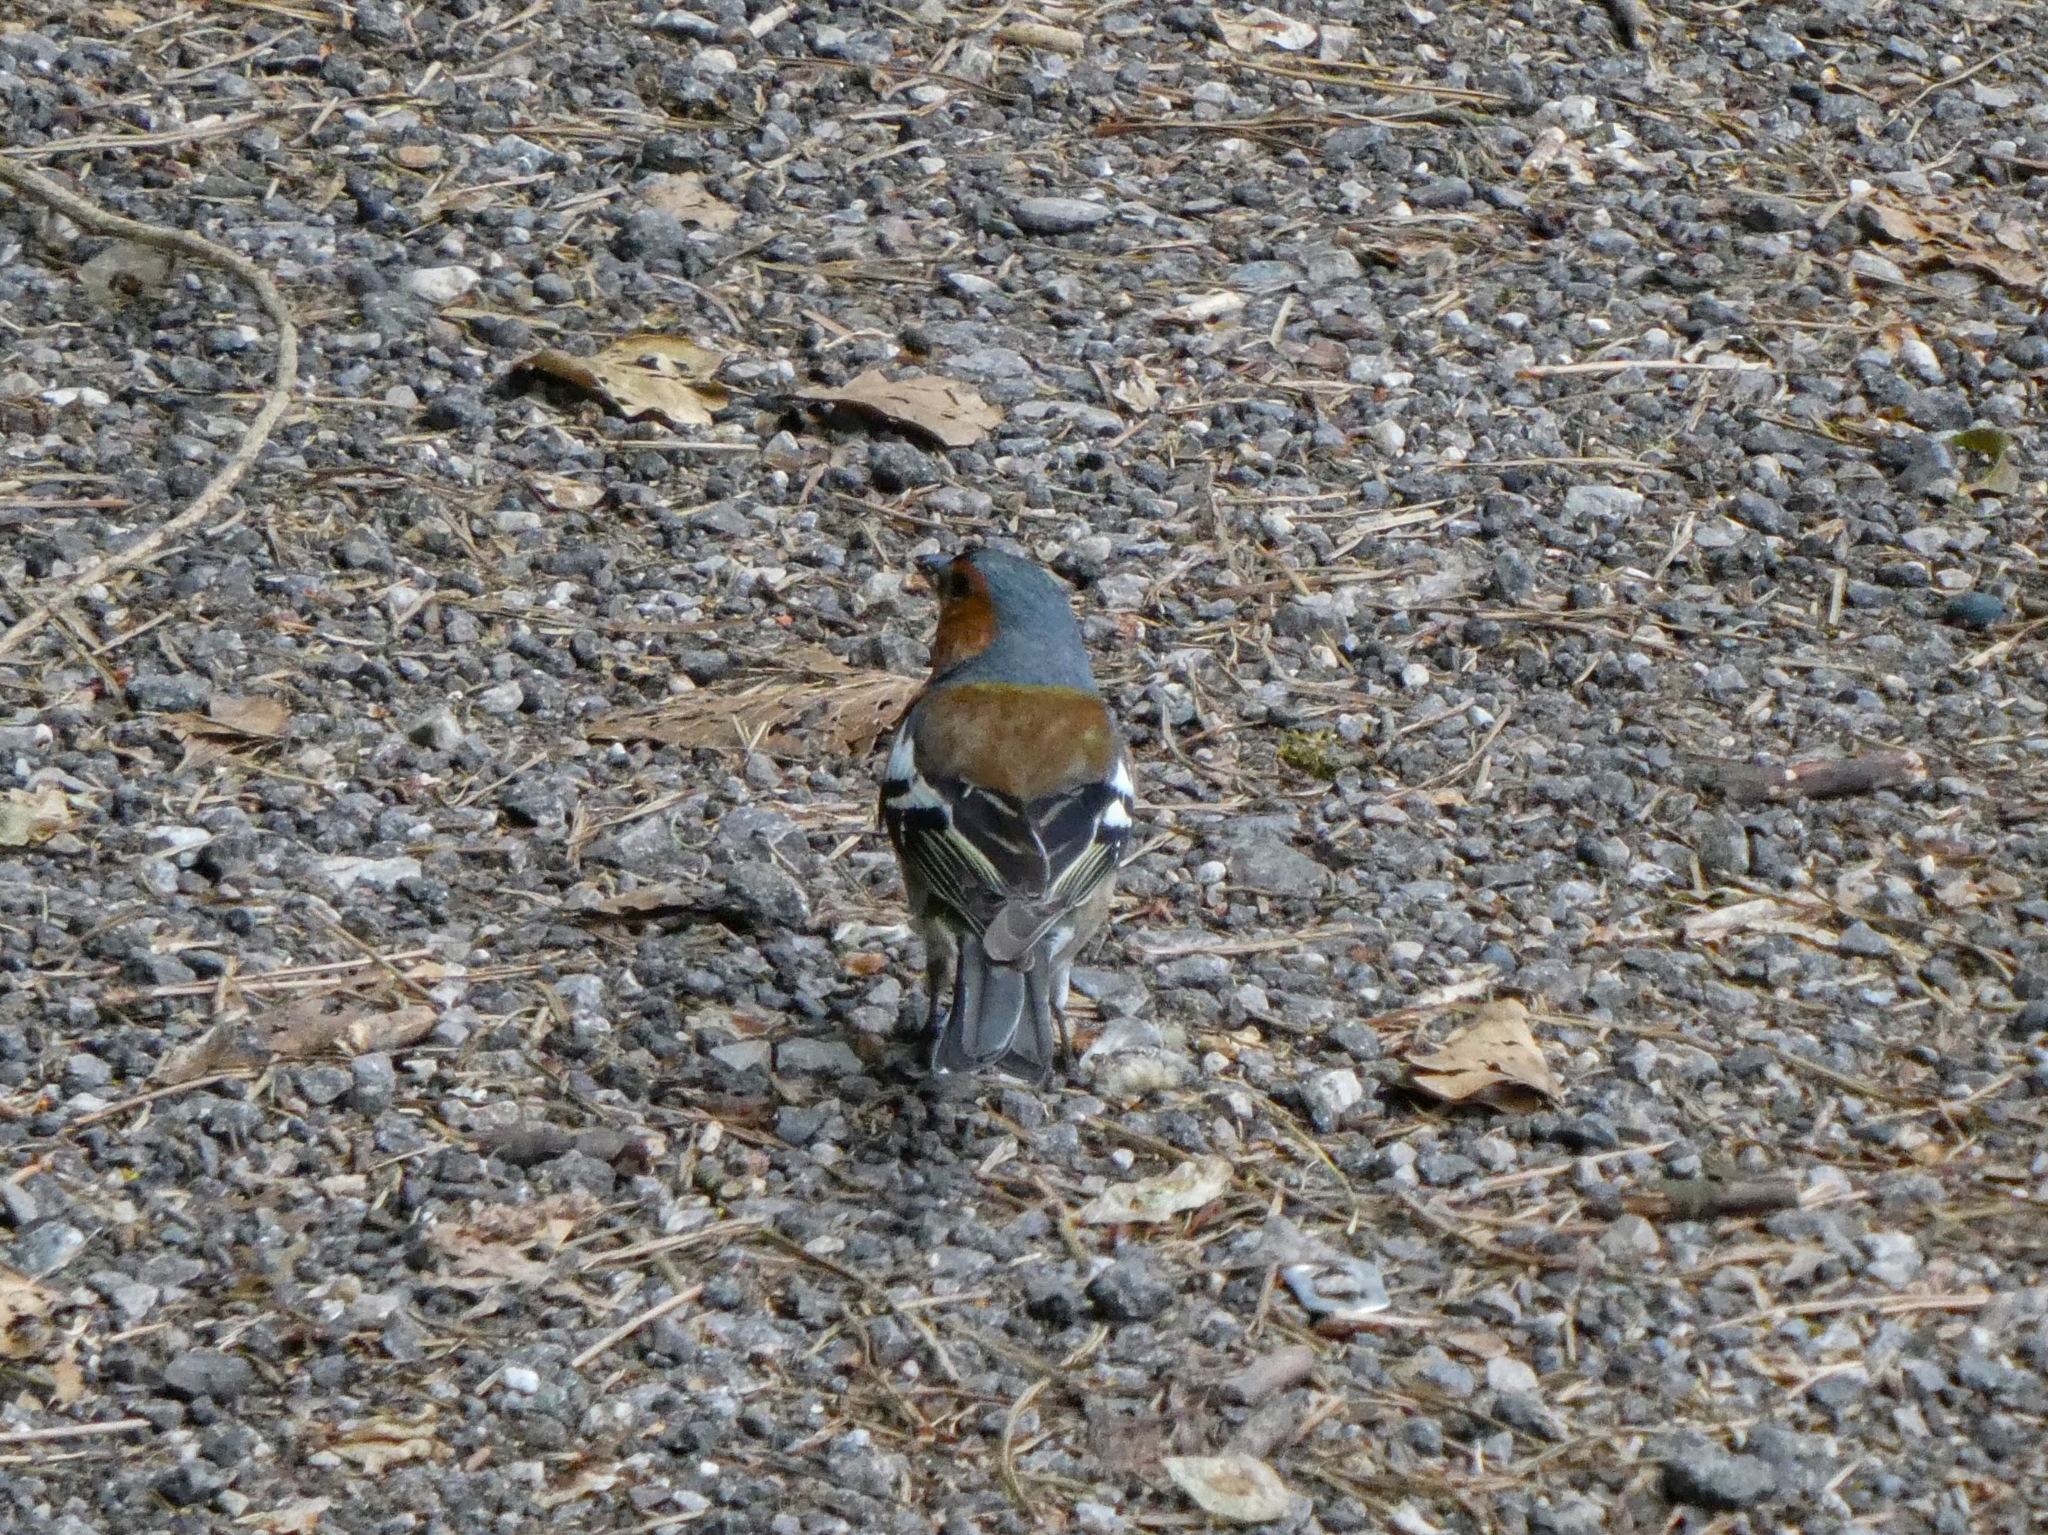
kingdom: Animalia
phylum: Chordata
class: Aves
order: Passeriformes
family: Fringillidae
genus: Fringilla
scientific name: Fringilla coelebs
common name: Common chaffinch
